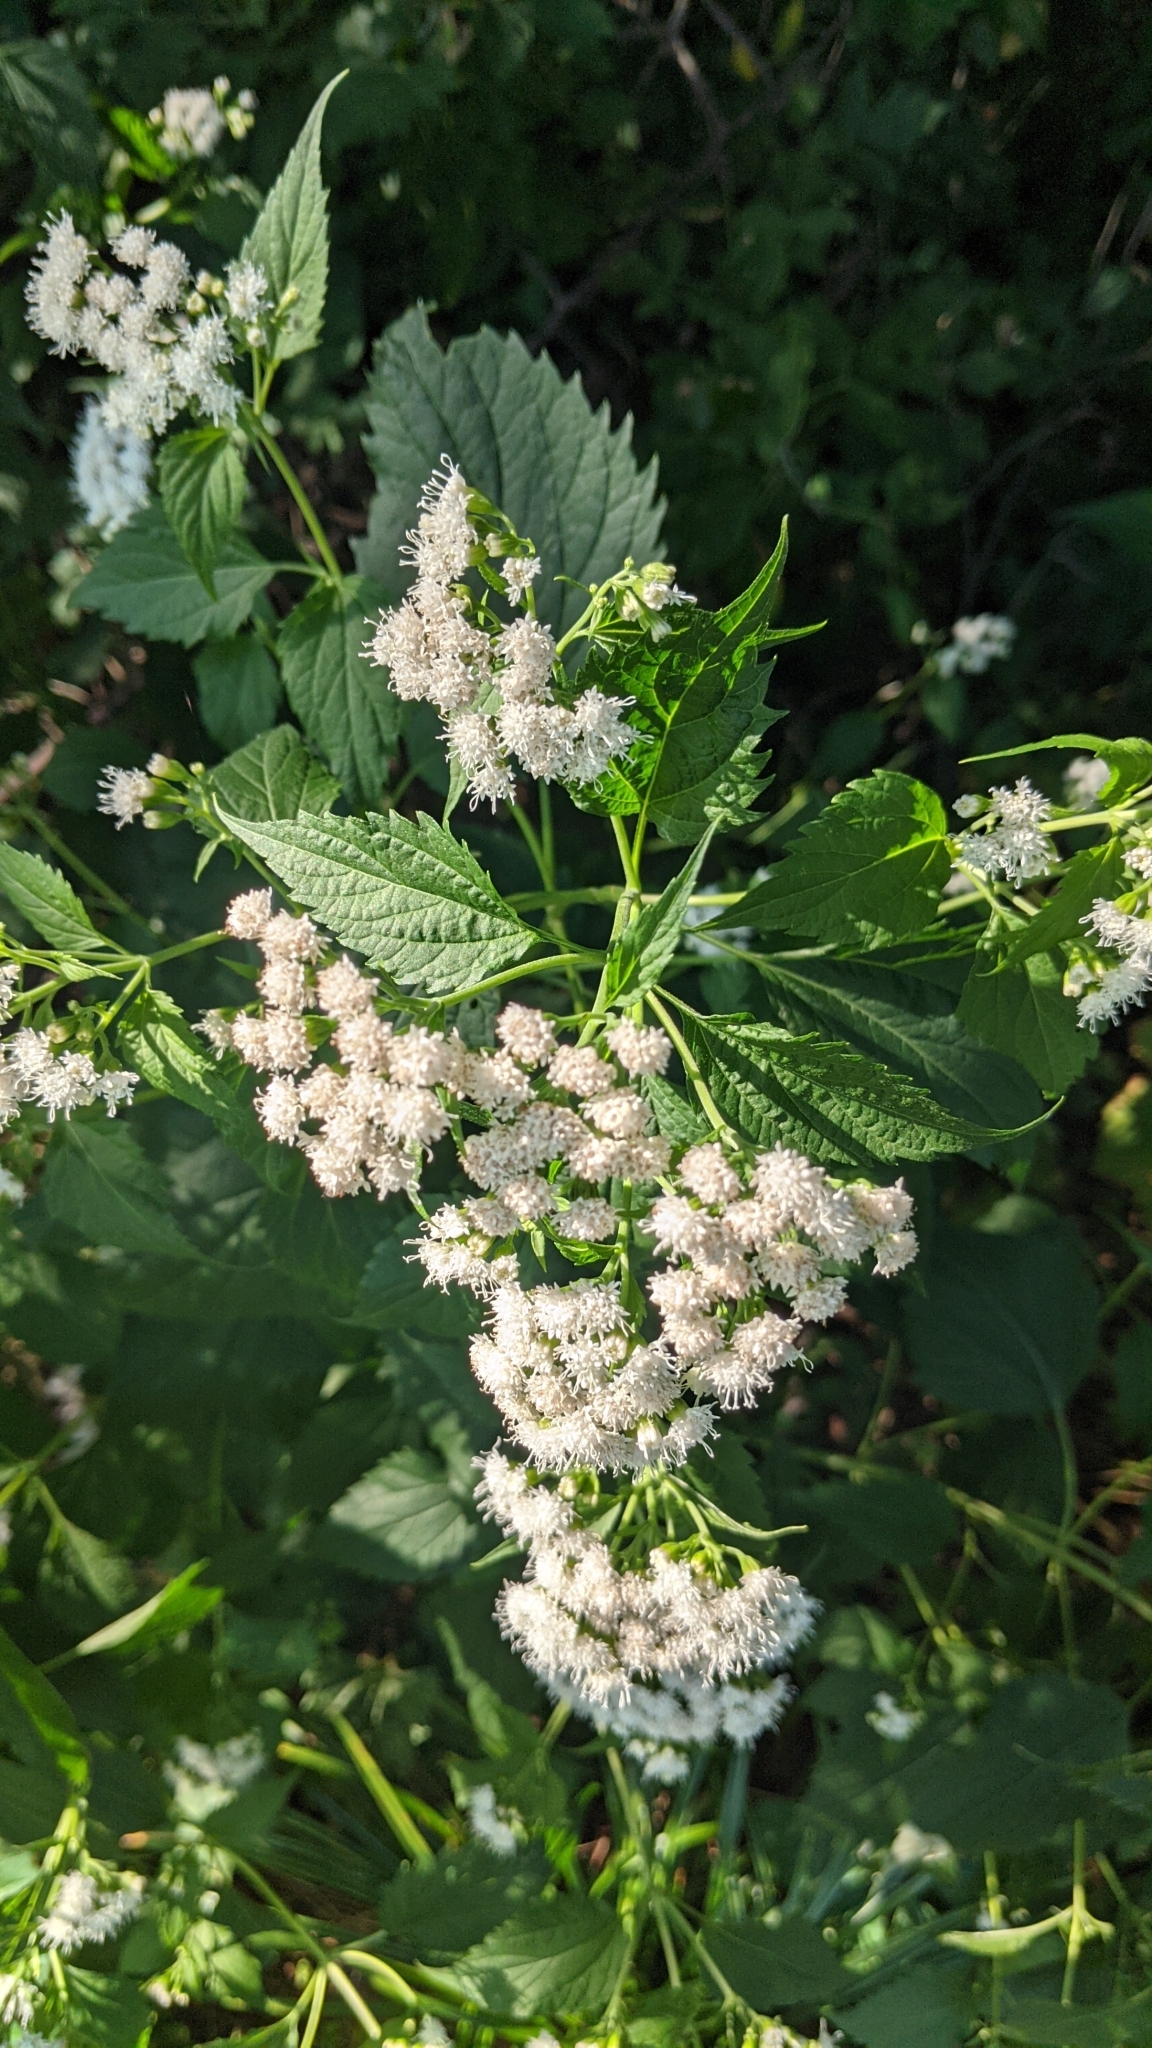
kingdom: Plantae
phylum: Tracheophyta
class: Magnoliopsida
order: Asterales
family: Asteraceae
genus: Ageratina
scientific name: Ageratina altissima
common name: White snakeroot
